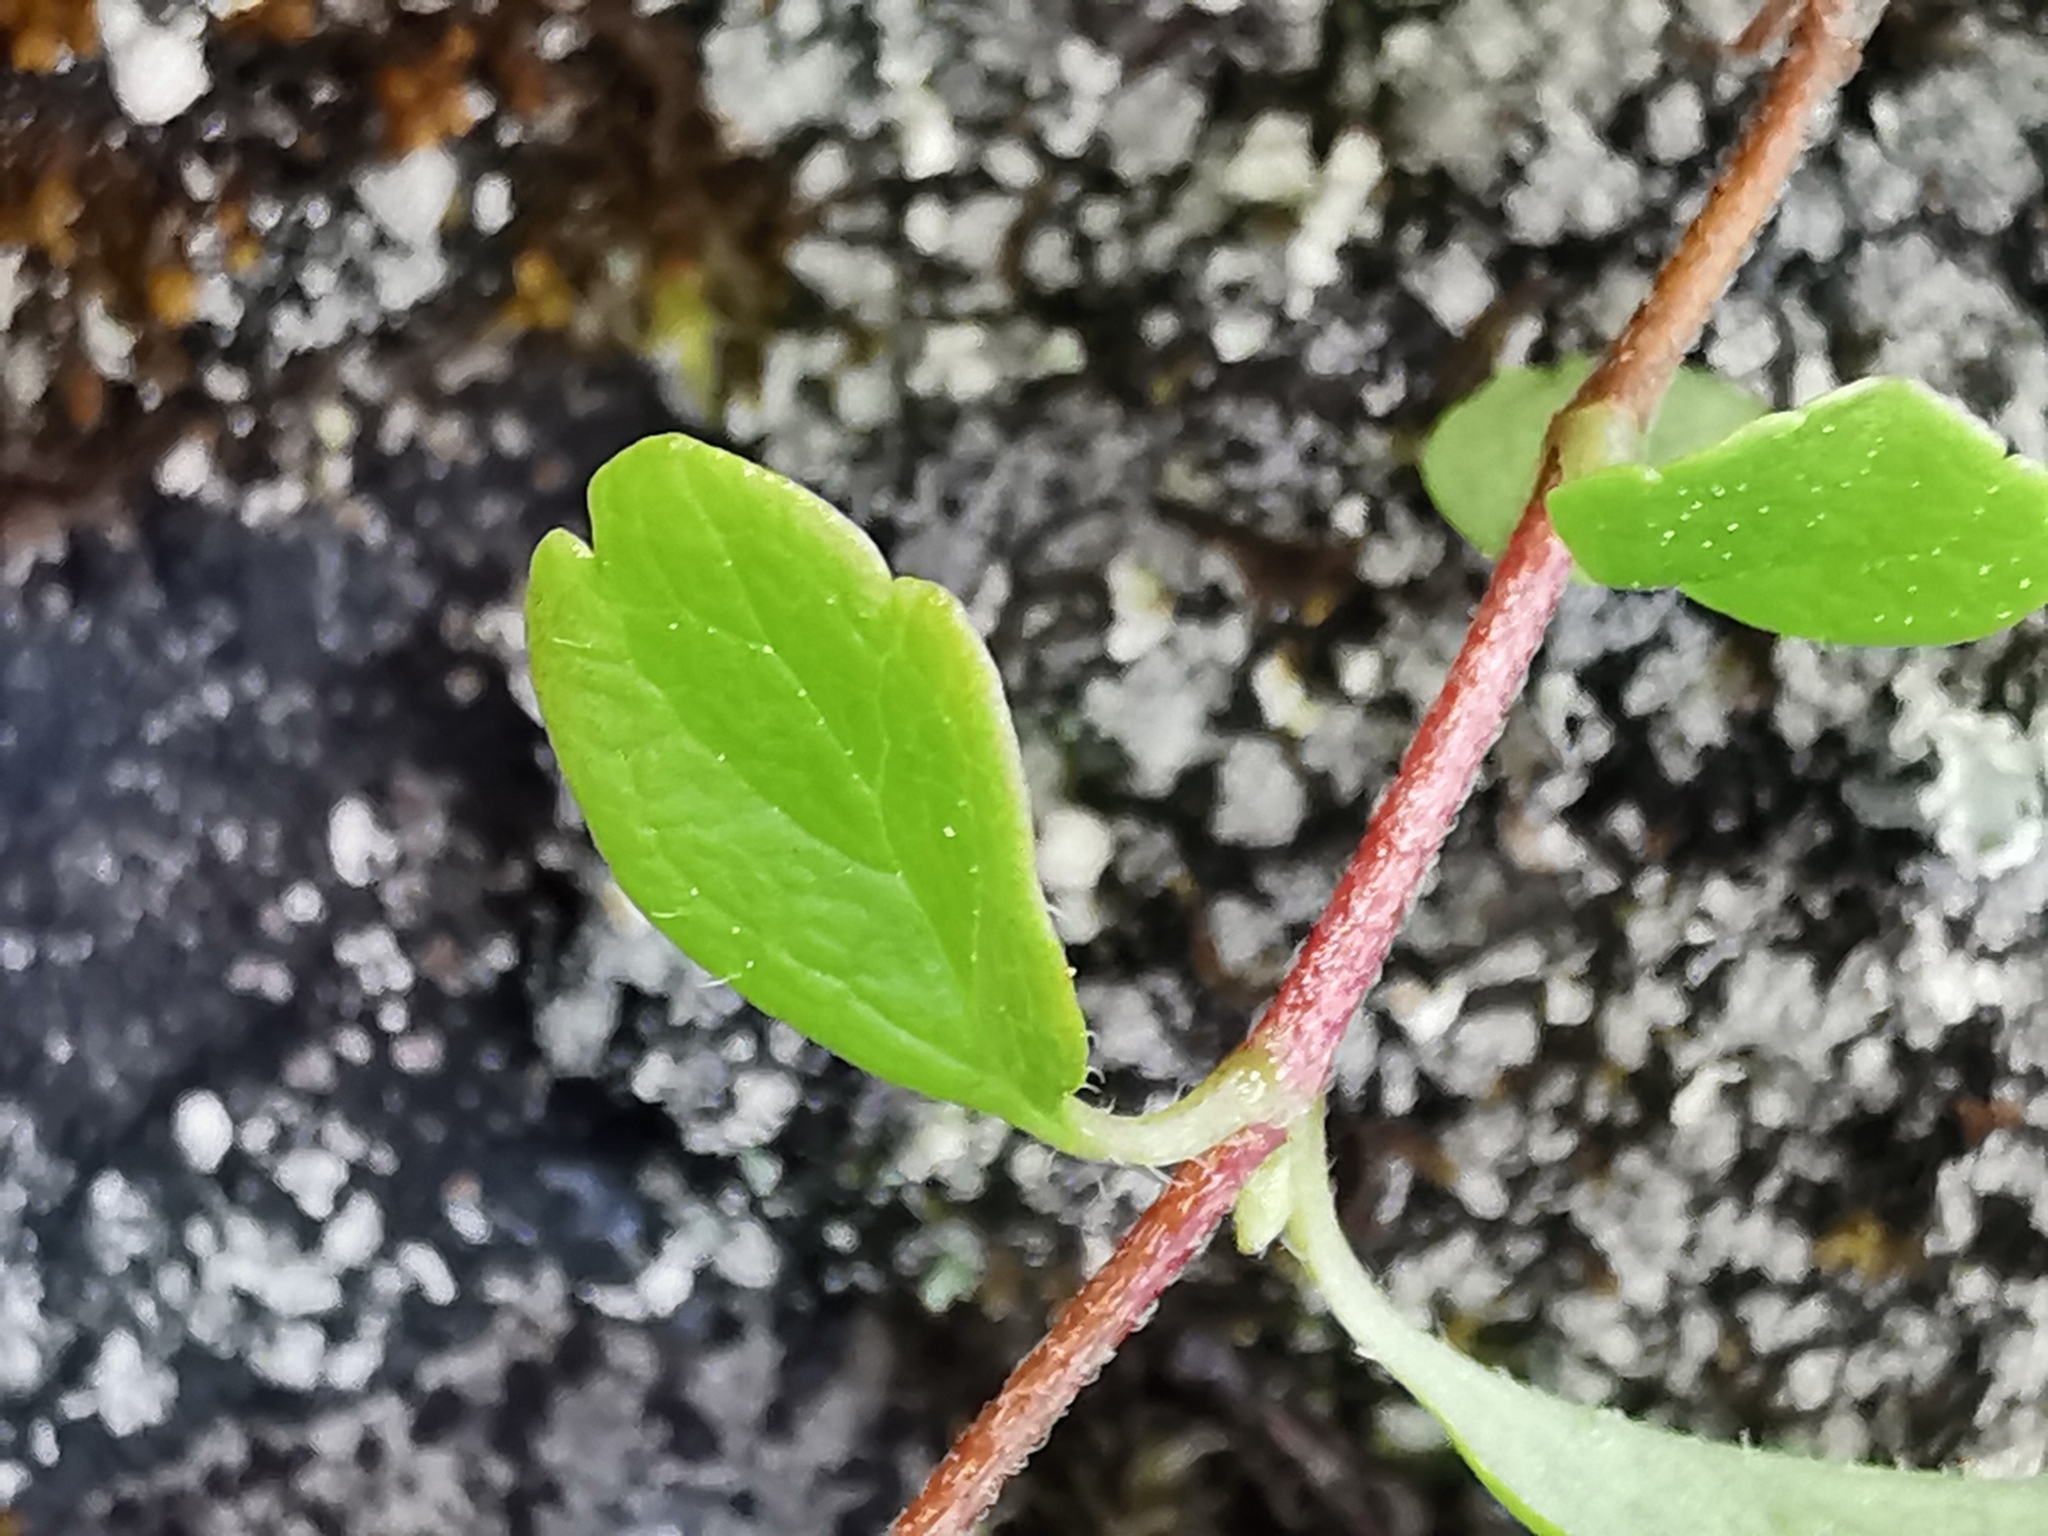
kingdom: Plantae
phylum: Tracheophyta
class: Magnoliopsida
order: Dipsacales
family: Caprifoliaceae
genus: Linnaea
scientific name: Linnaea borealis
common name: Twinflower
